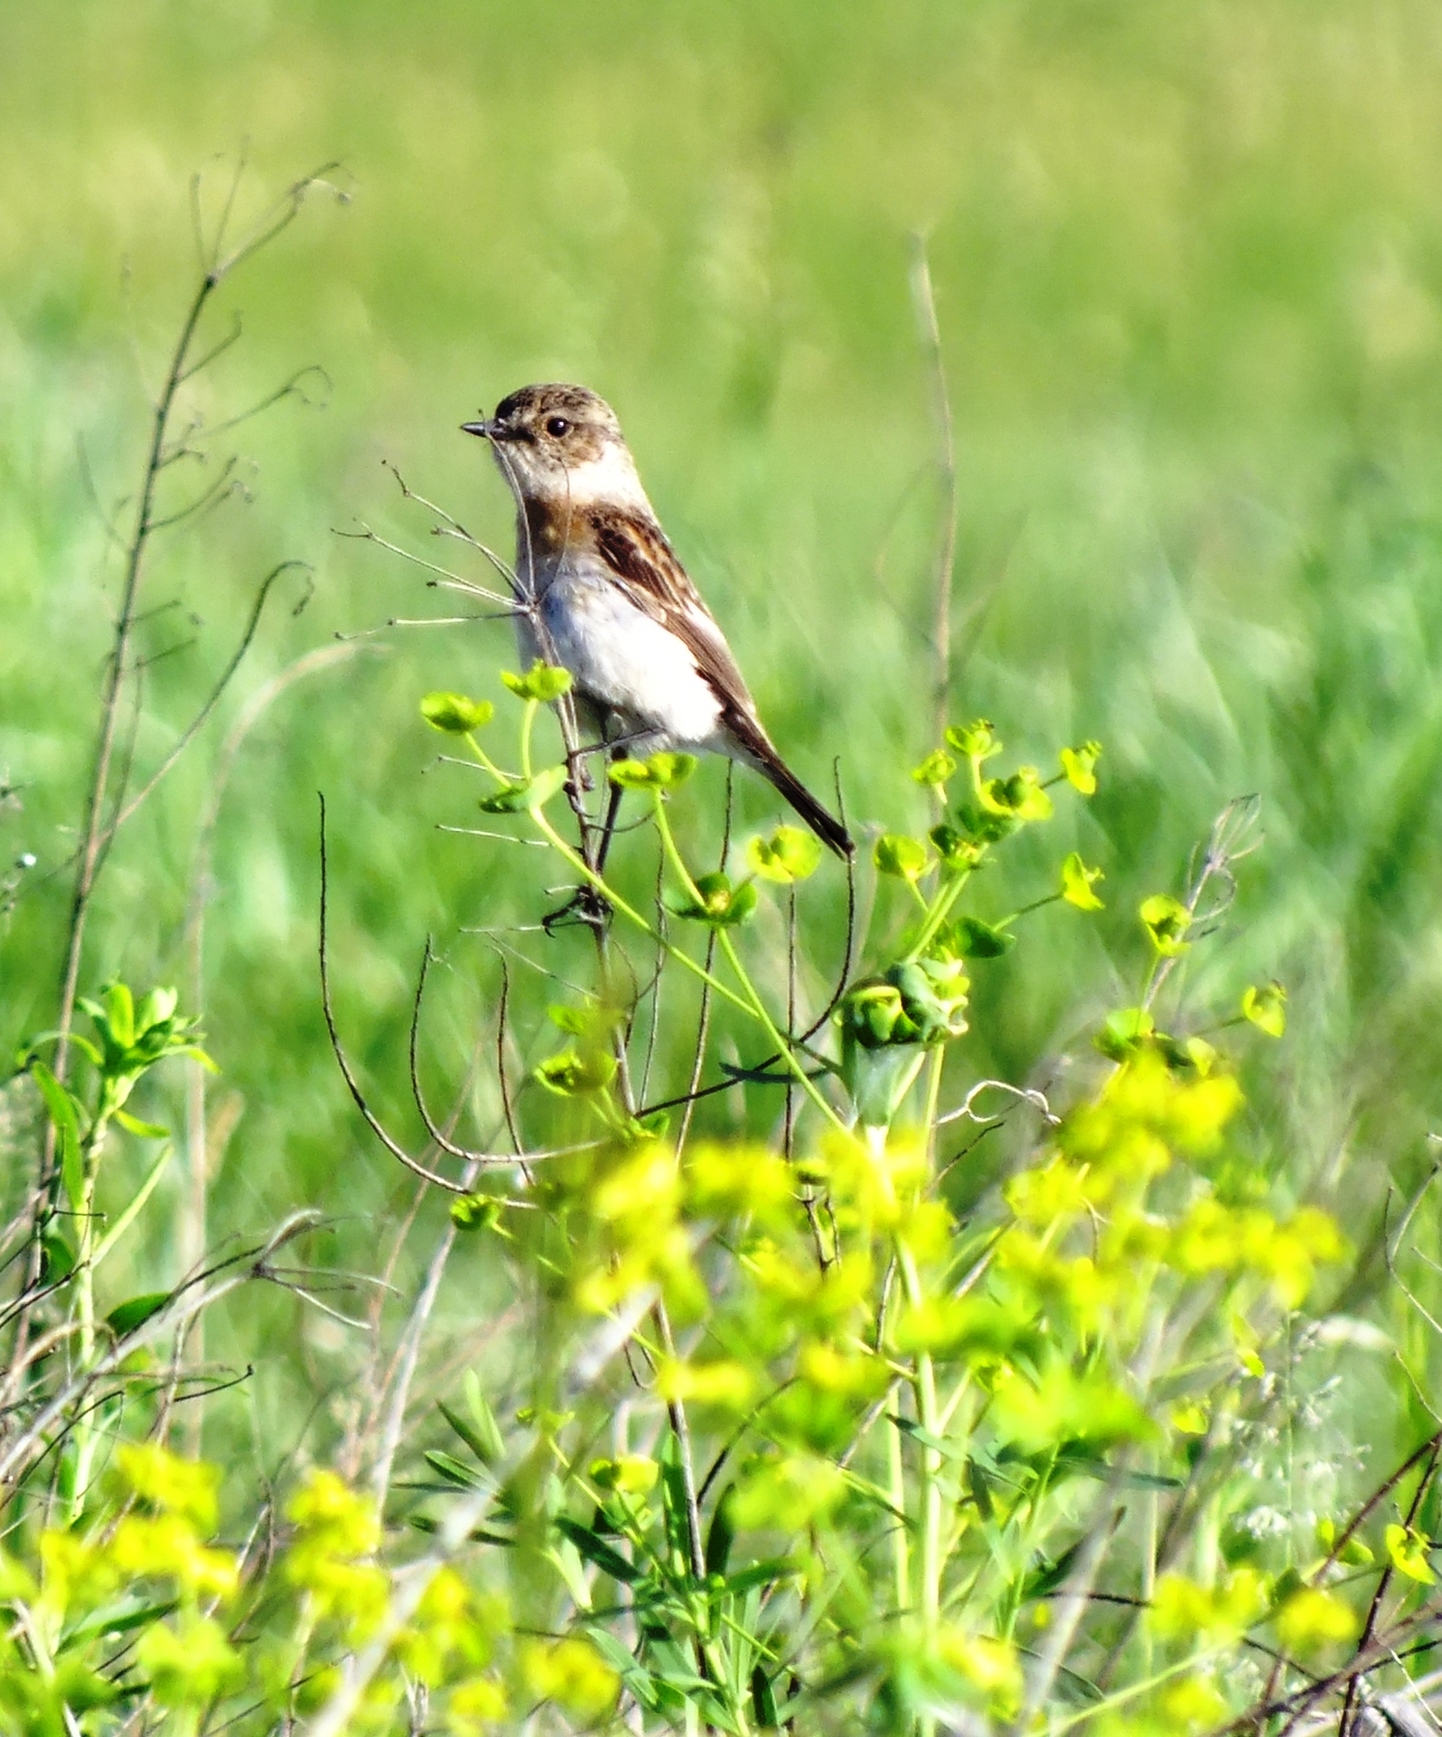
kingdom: Animalia
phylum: Chordata
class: Aves
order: Passeriformes
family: Muscicapidae
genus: Saxicola
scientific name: Saxicola maurus
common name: Siberian stonechat
